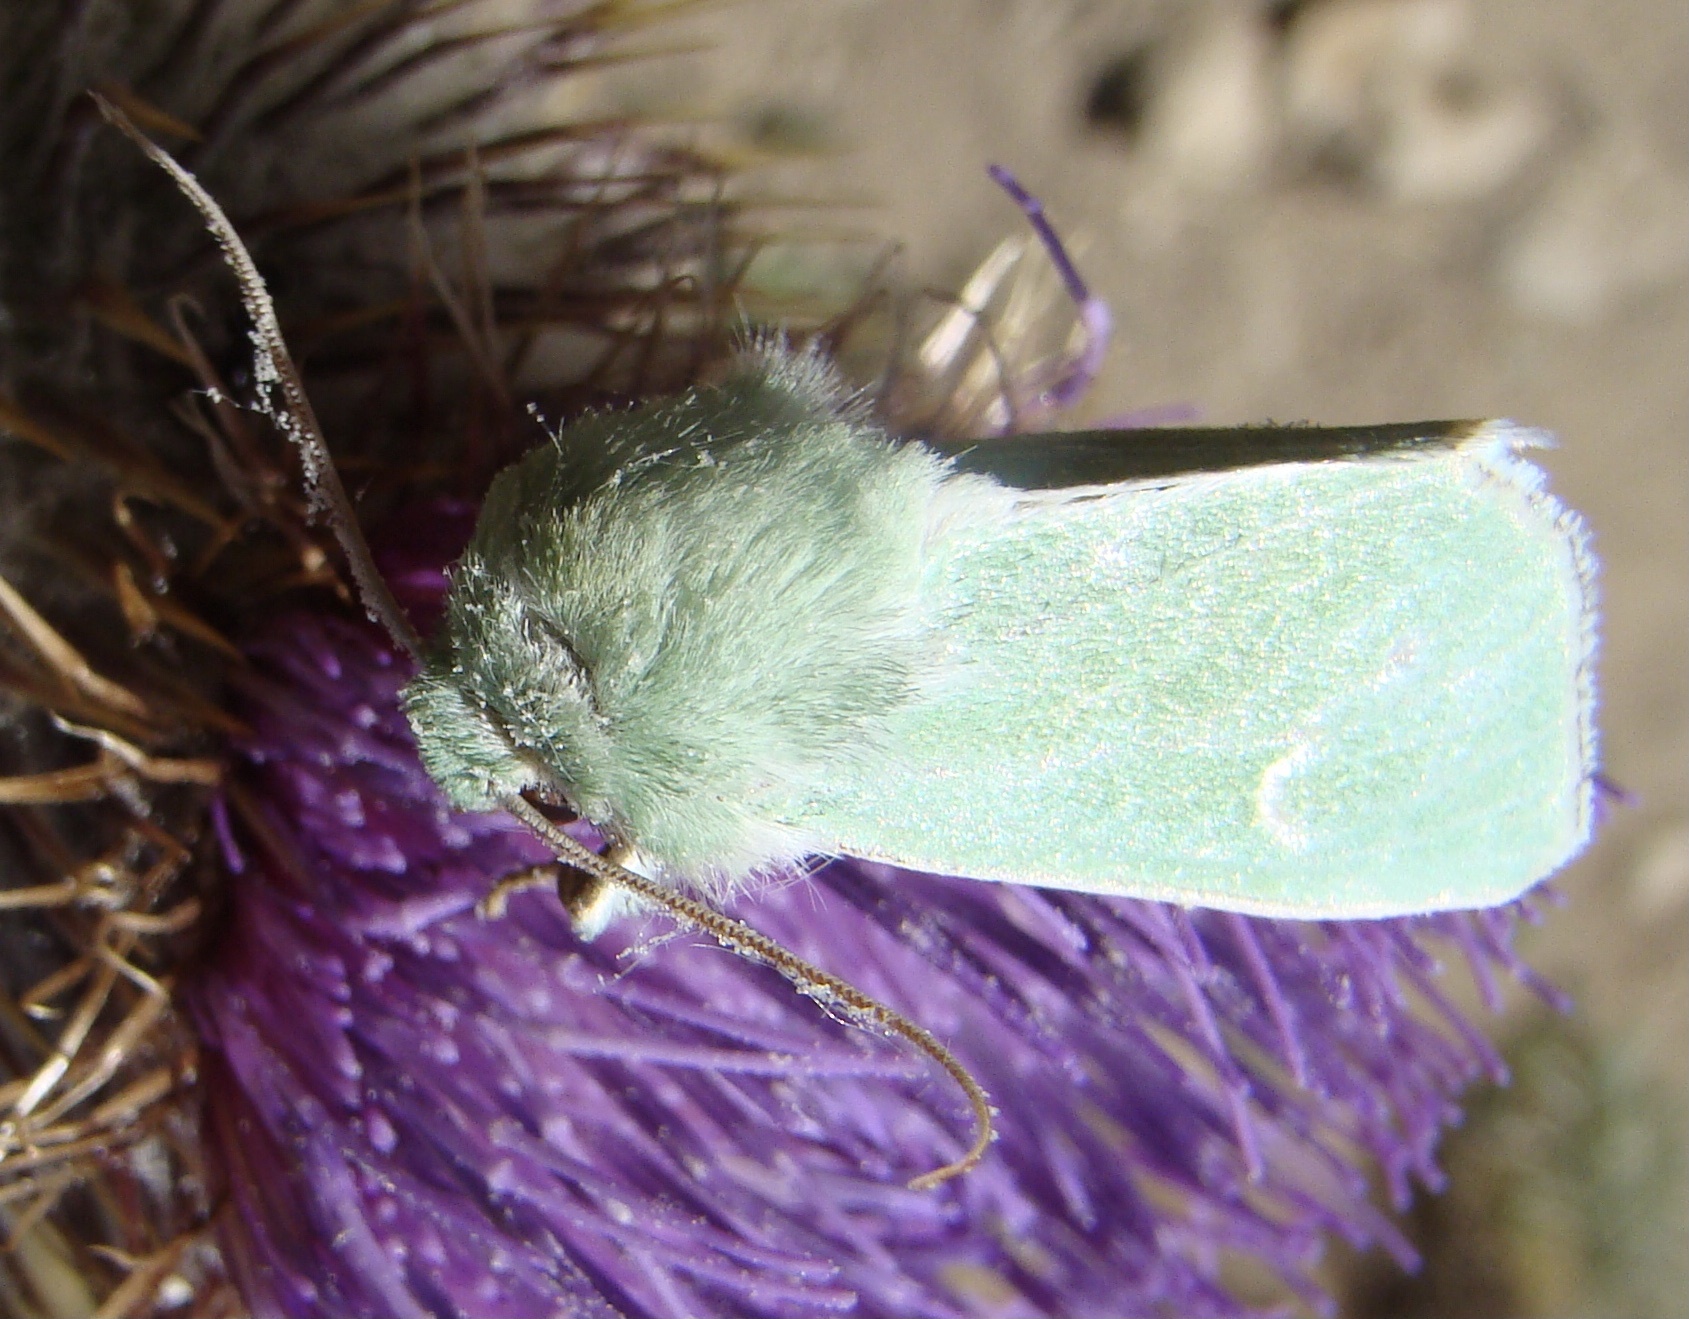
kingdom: Animalia
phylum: Arthropoda
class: Insecta
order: Lepidoptera
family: Noctuidae
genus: Calamia
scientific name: Calamia tridens
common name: Burren green
